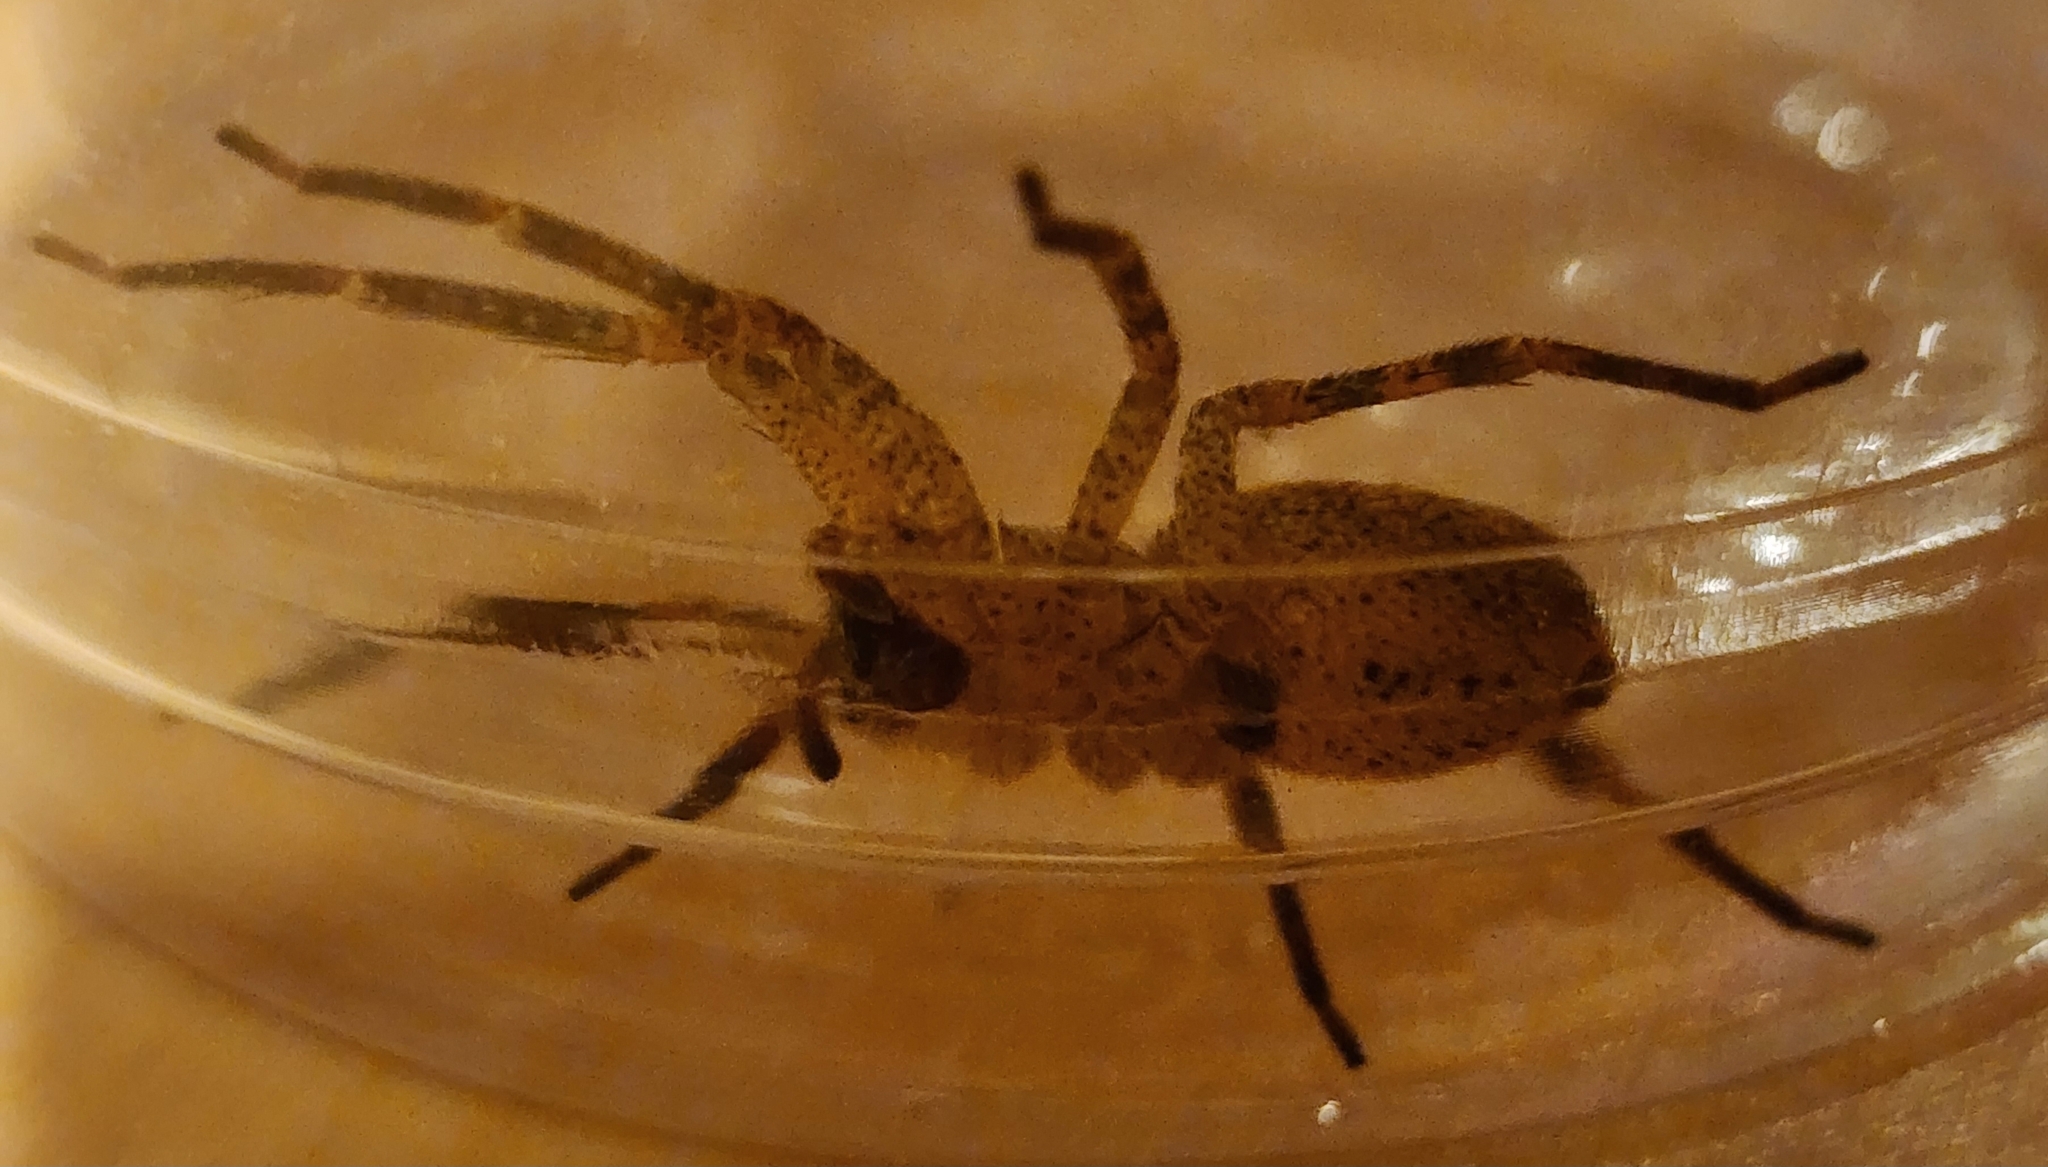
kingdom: Animalia
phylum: Arthropoda
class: Arachnida
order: Araneae
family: Zoropsidae
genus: Zoropsis
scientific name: Zoropsis spinimana
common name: Zoropsid spider
